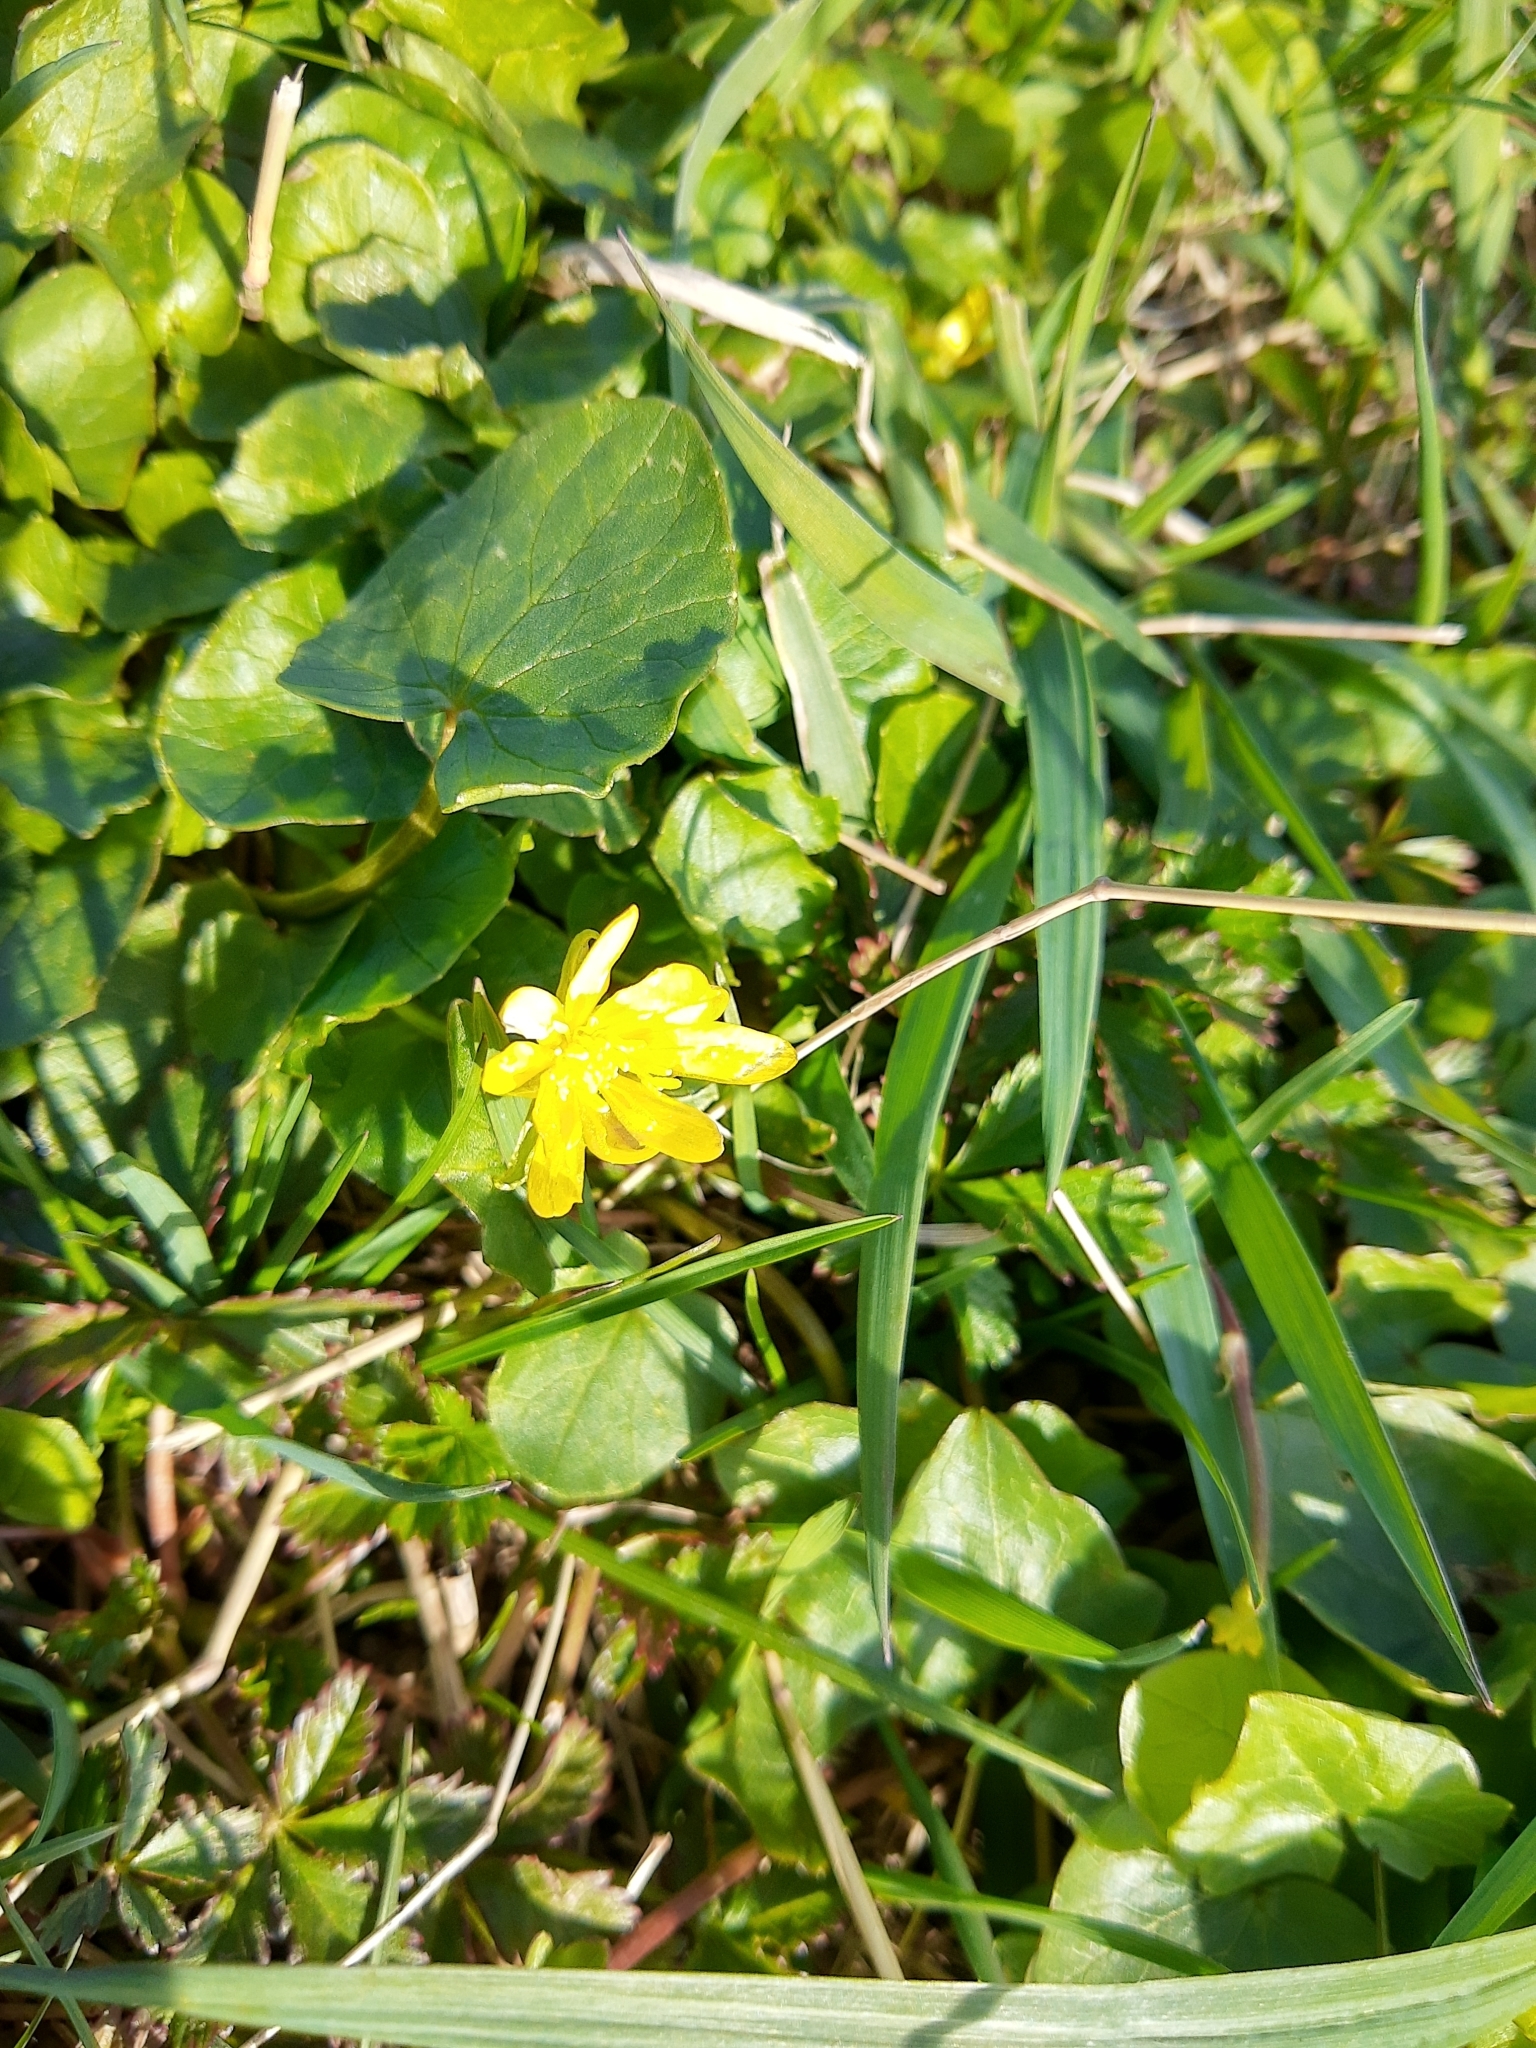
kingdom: Plantae
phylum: Tracheophyta
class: Magnoliopsida
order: Ranunculales
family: Ranunculaceae
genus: Ficaria
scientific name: Ficaria verna
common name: Lesser celandine
